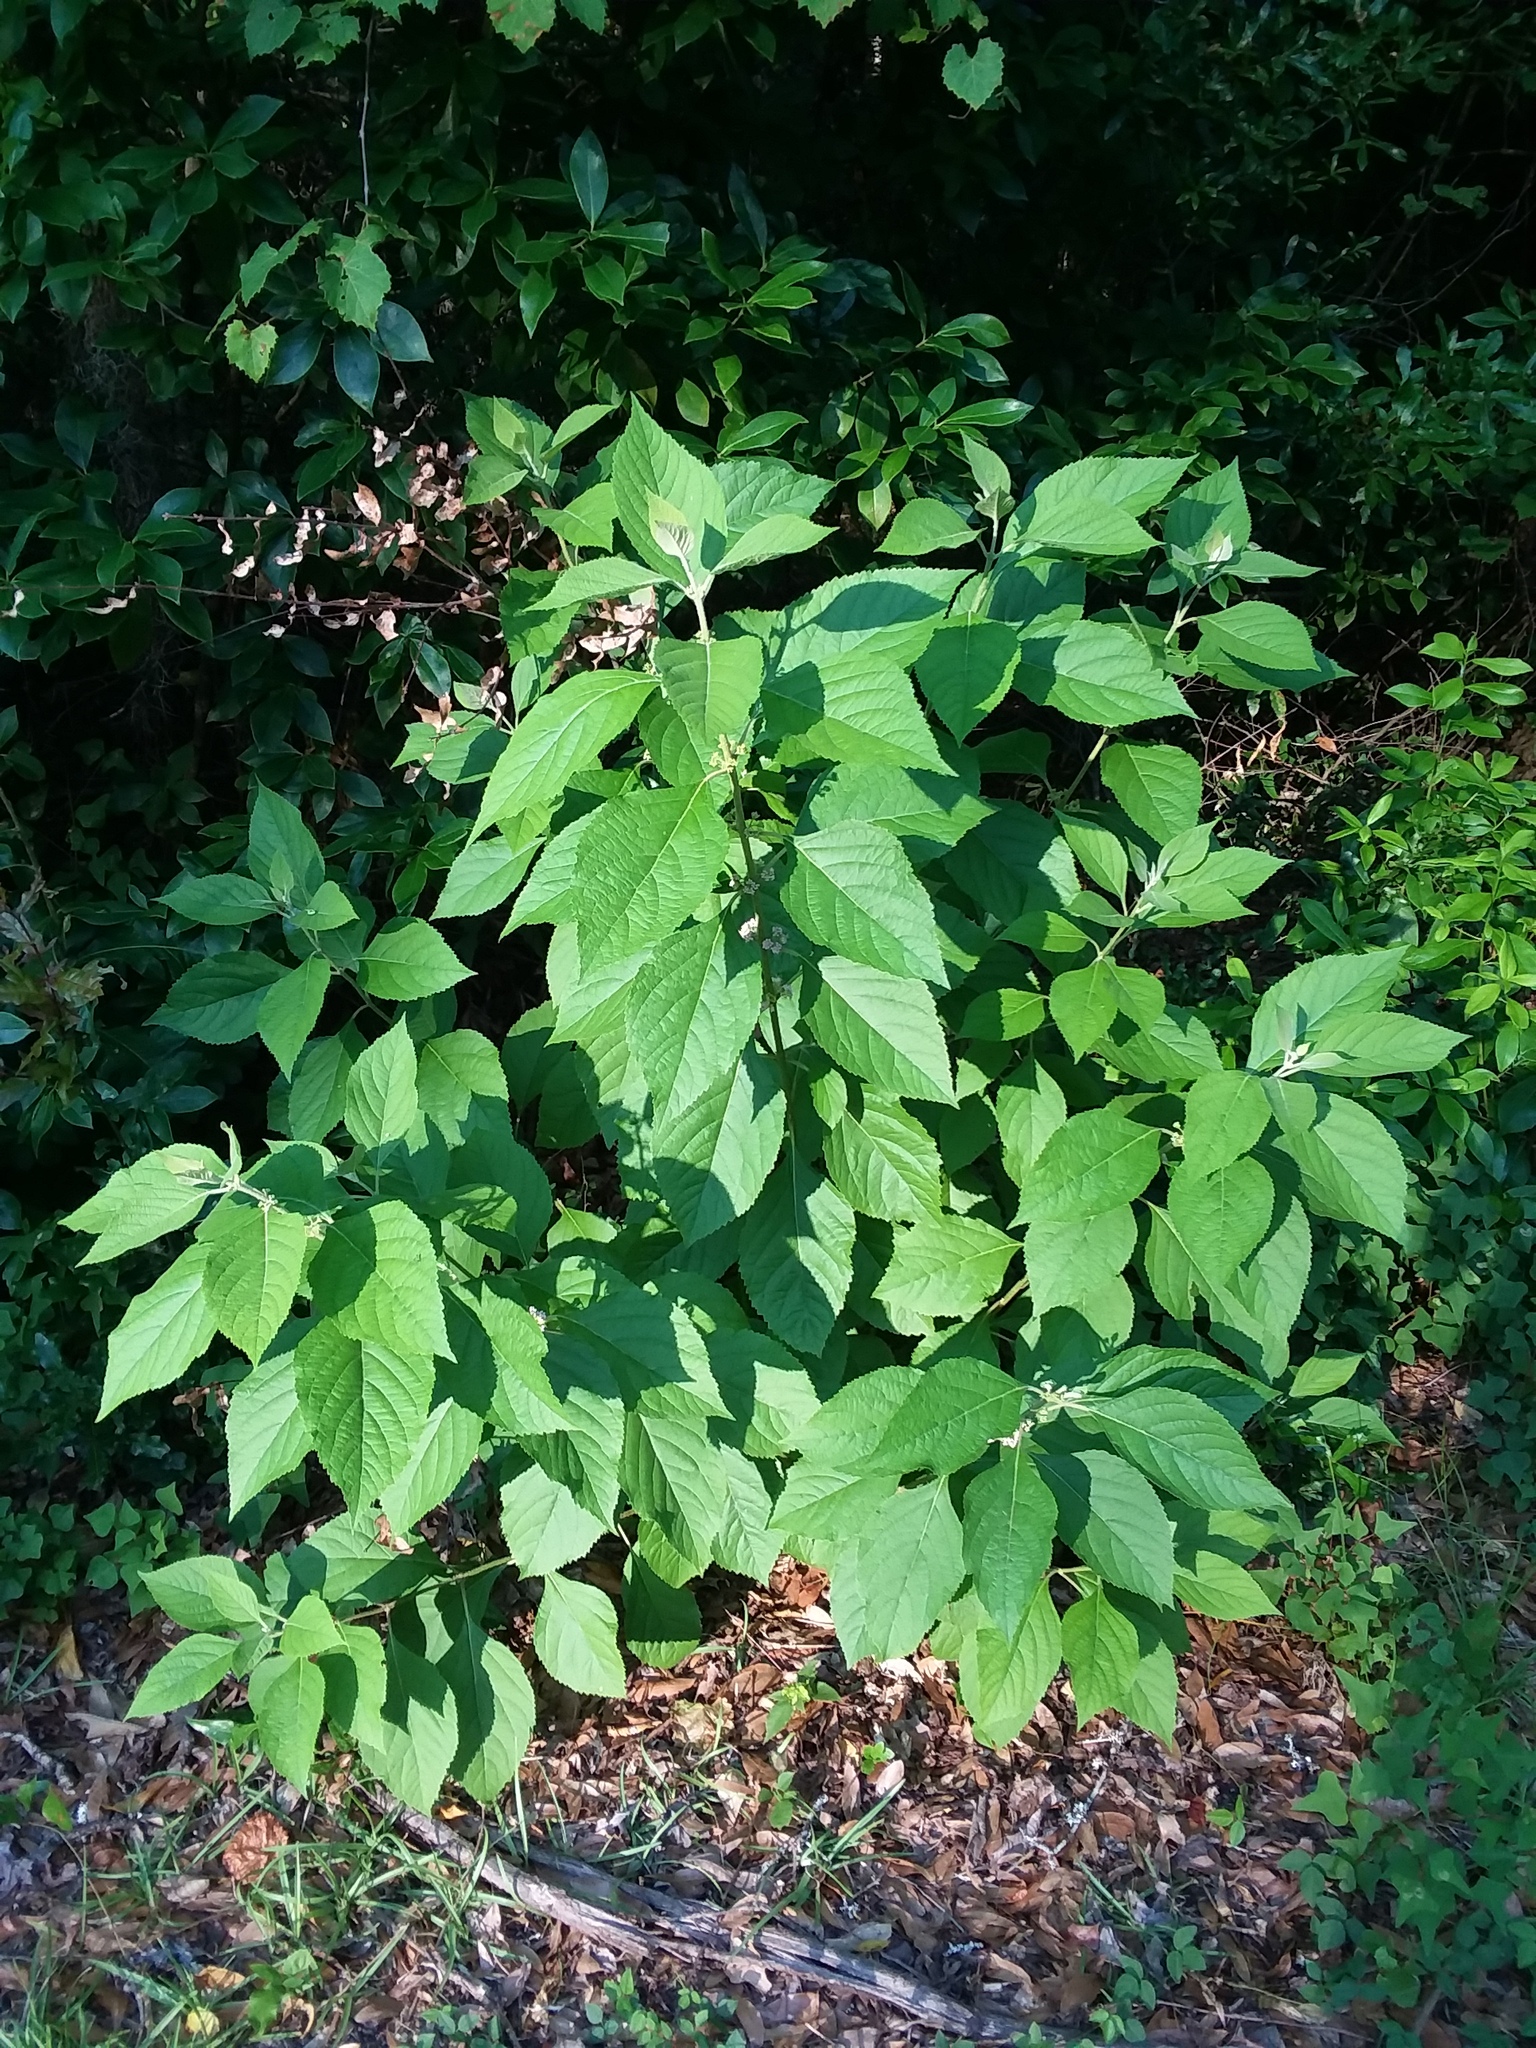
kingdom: Plantae
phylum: Tracheophyta
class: Magnoliopsida
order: Lamiales
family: Lamiaceae
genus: Callicarpa
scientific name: Callicarpa americana
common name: American beautyberry
